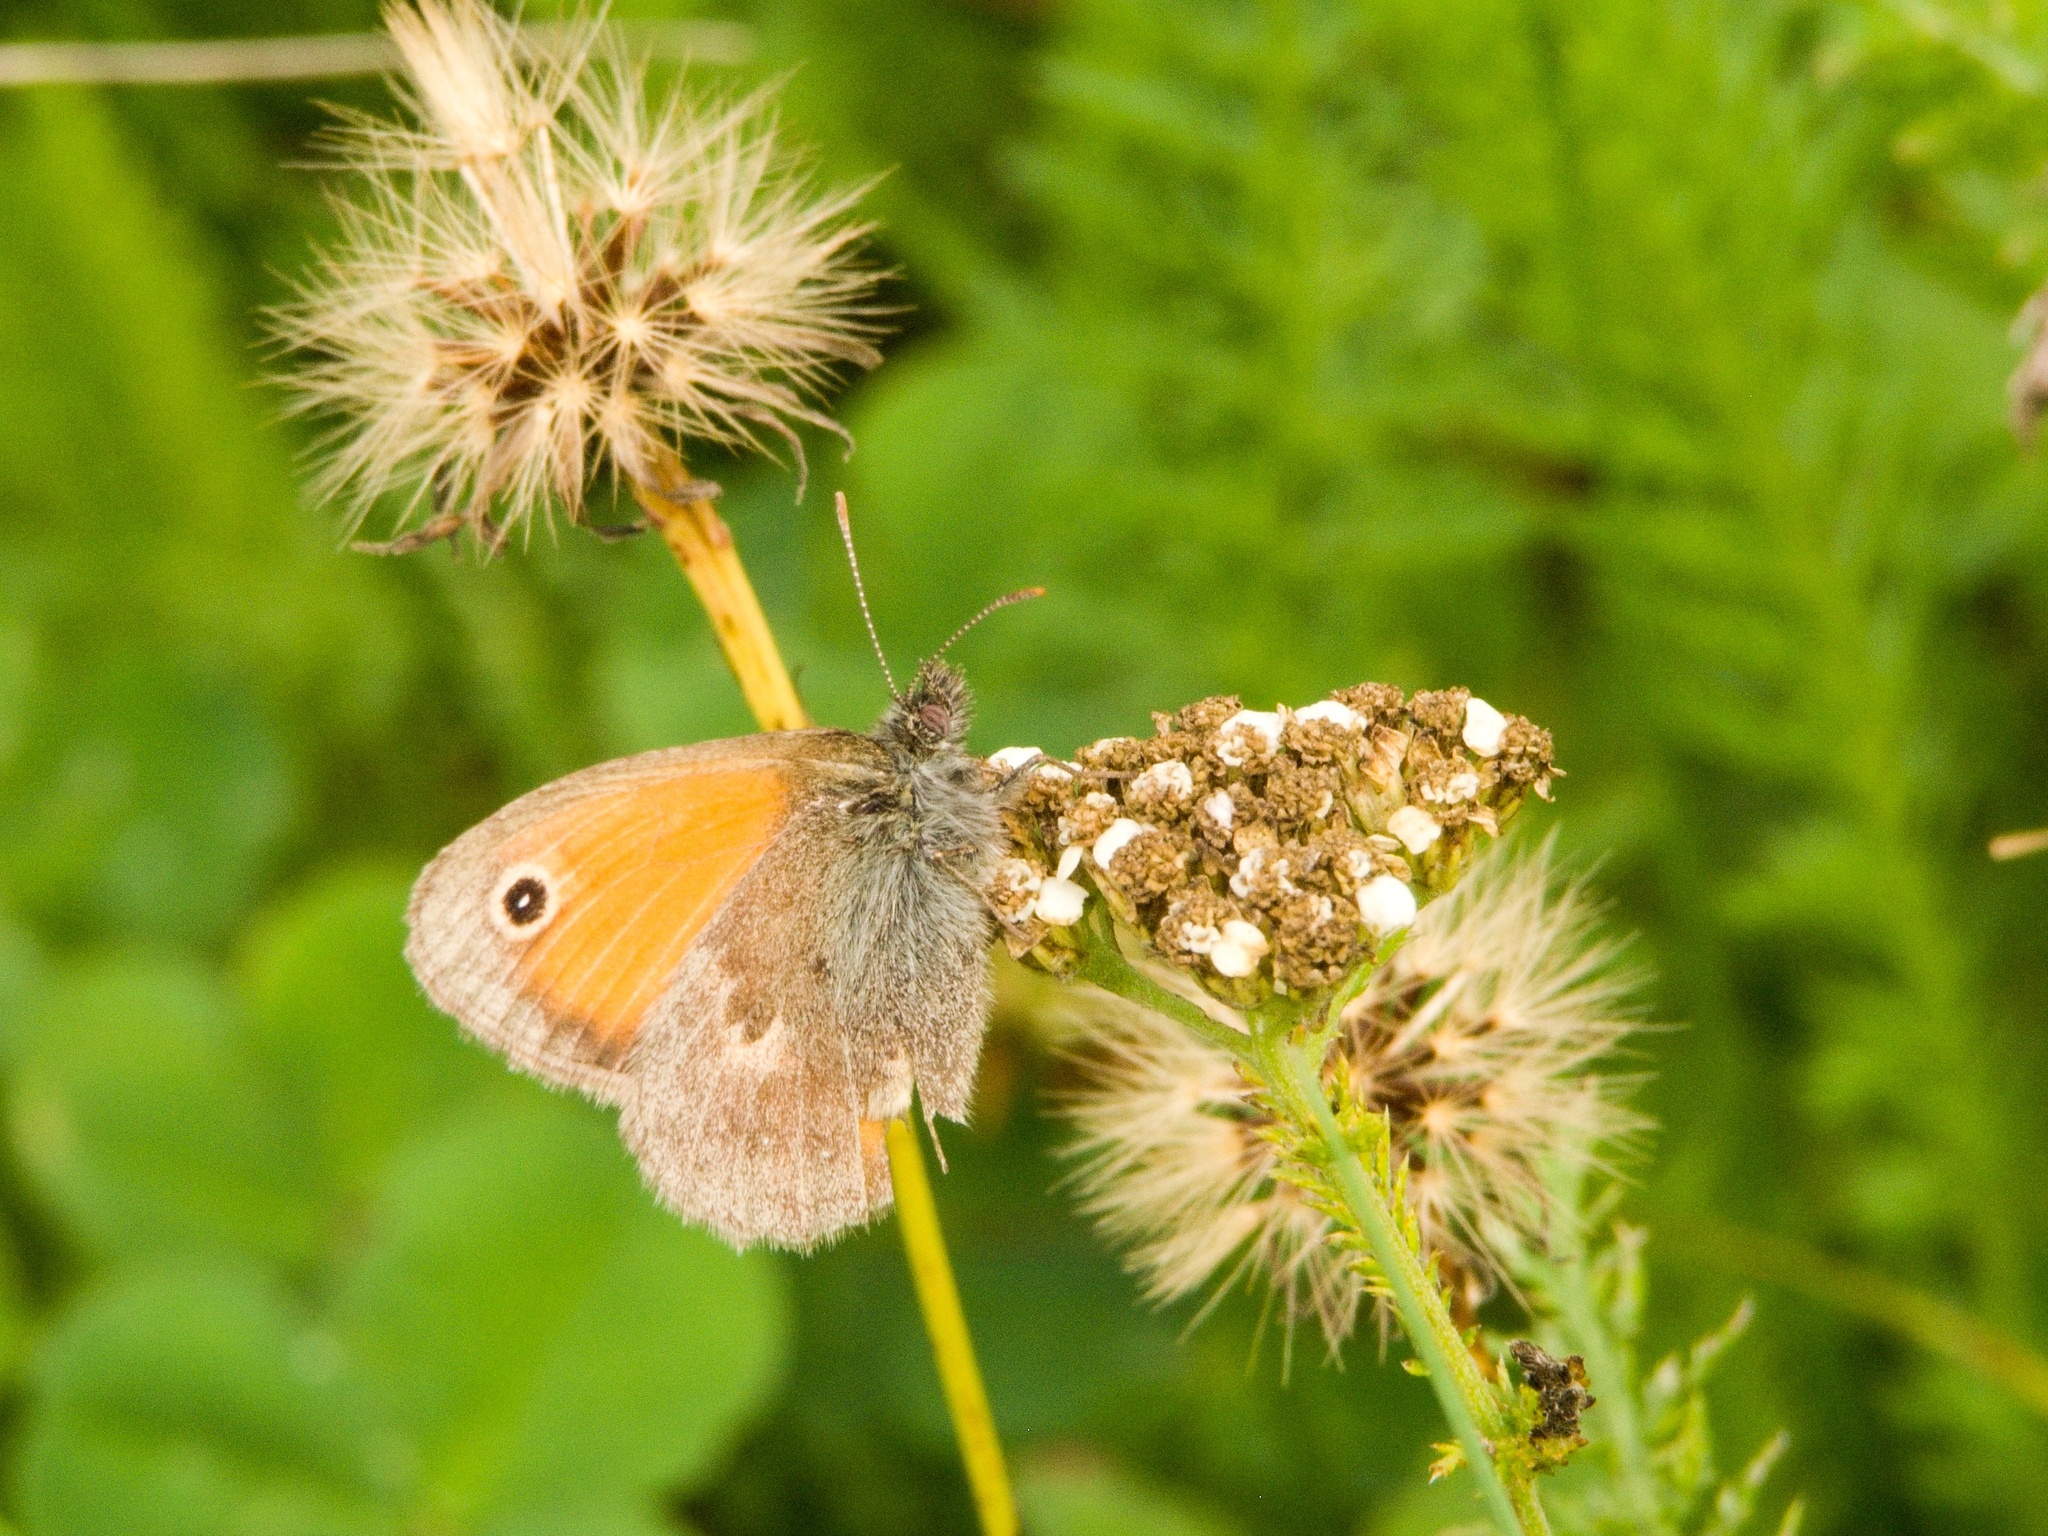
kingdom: Animalia
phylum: Arthropoda
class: Insecta
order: Lepidoptera
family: Nymphalidae
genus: Coenonympha
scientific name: Coenonympha pamphilus
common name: Small heath
